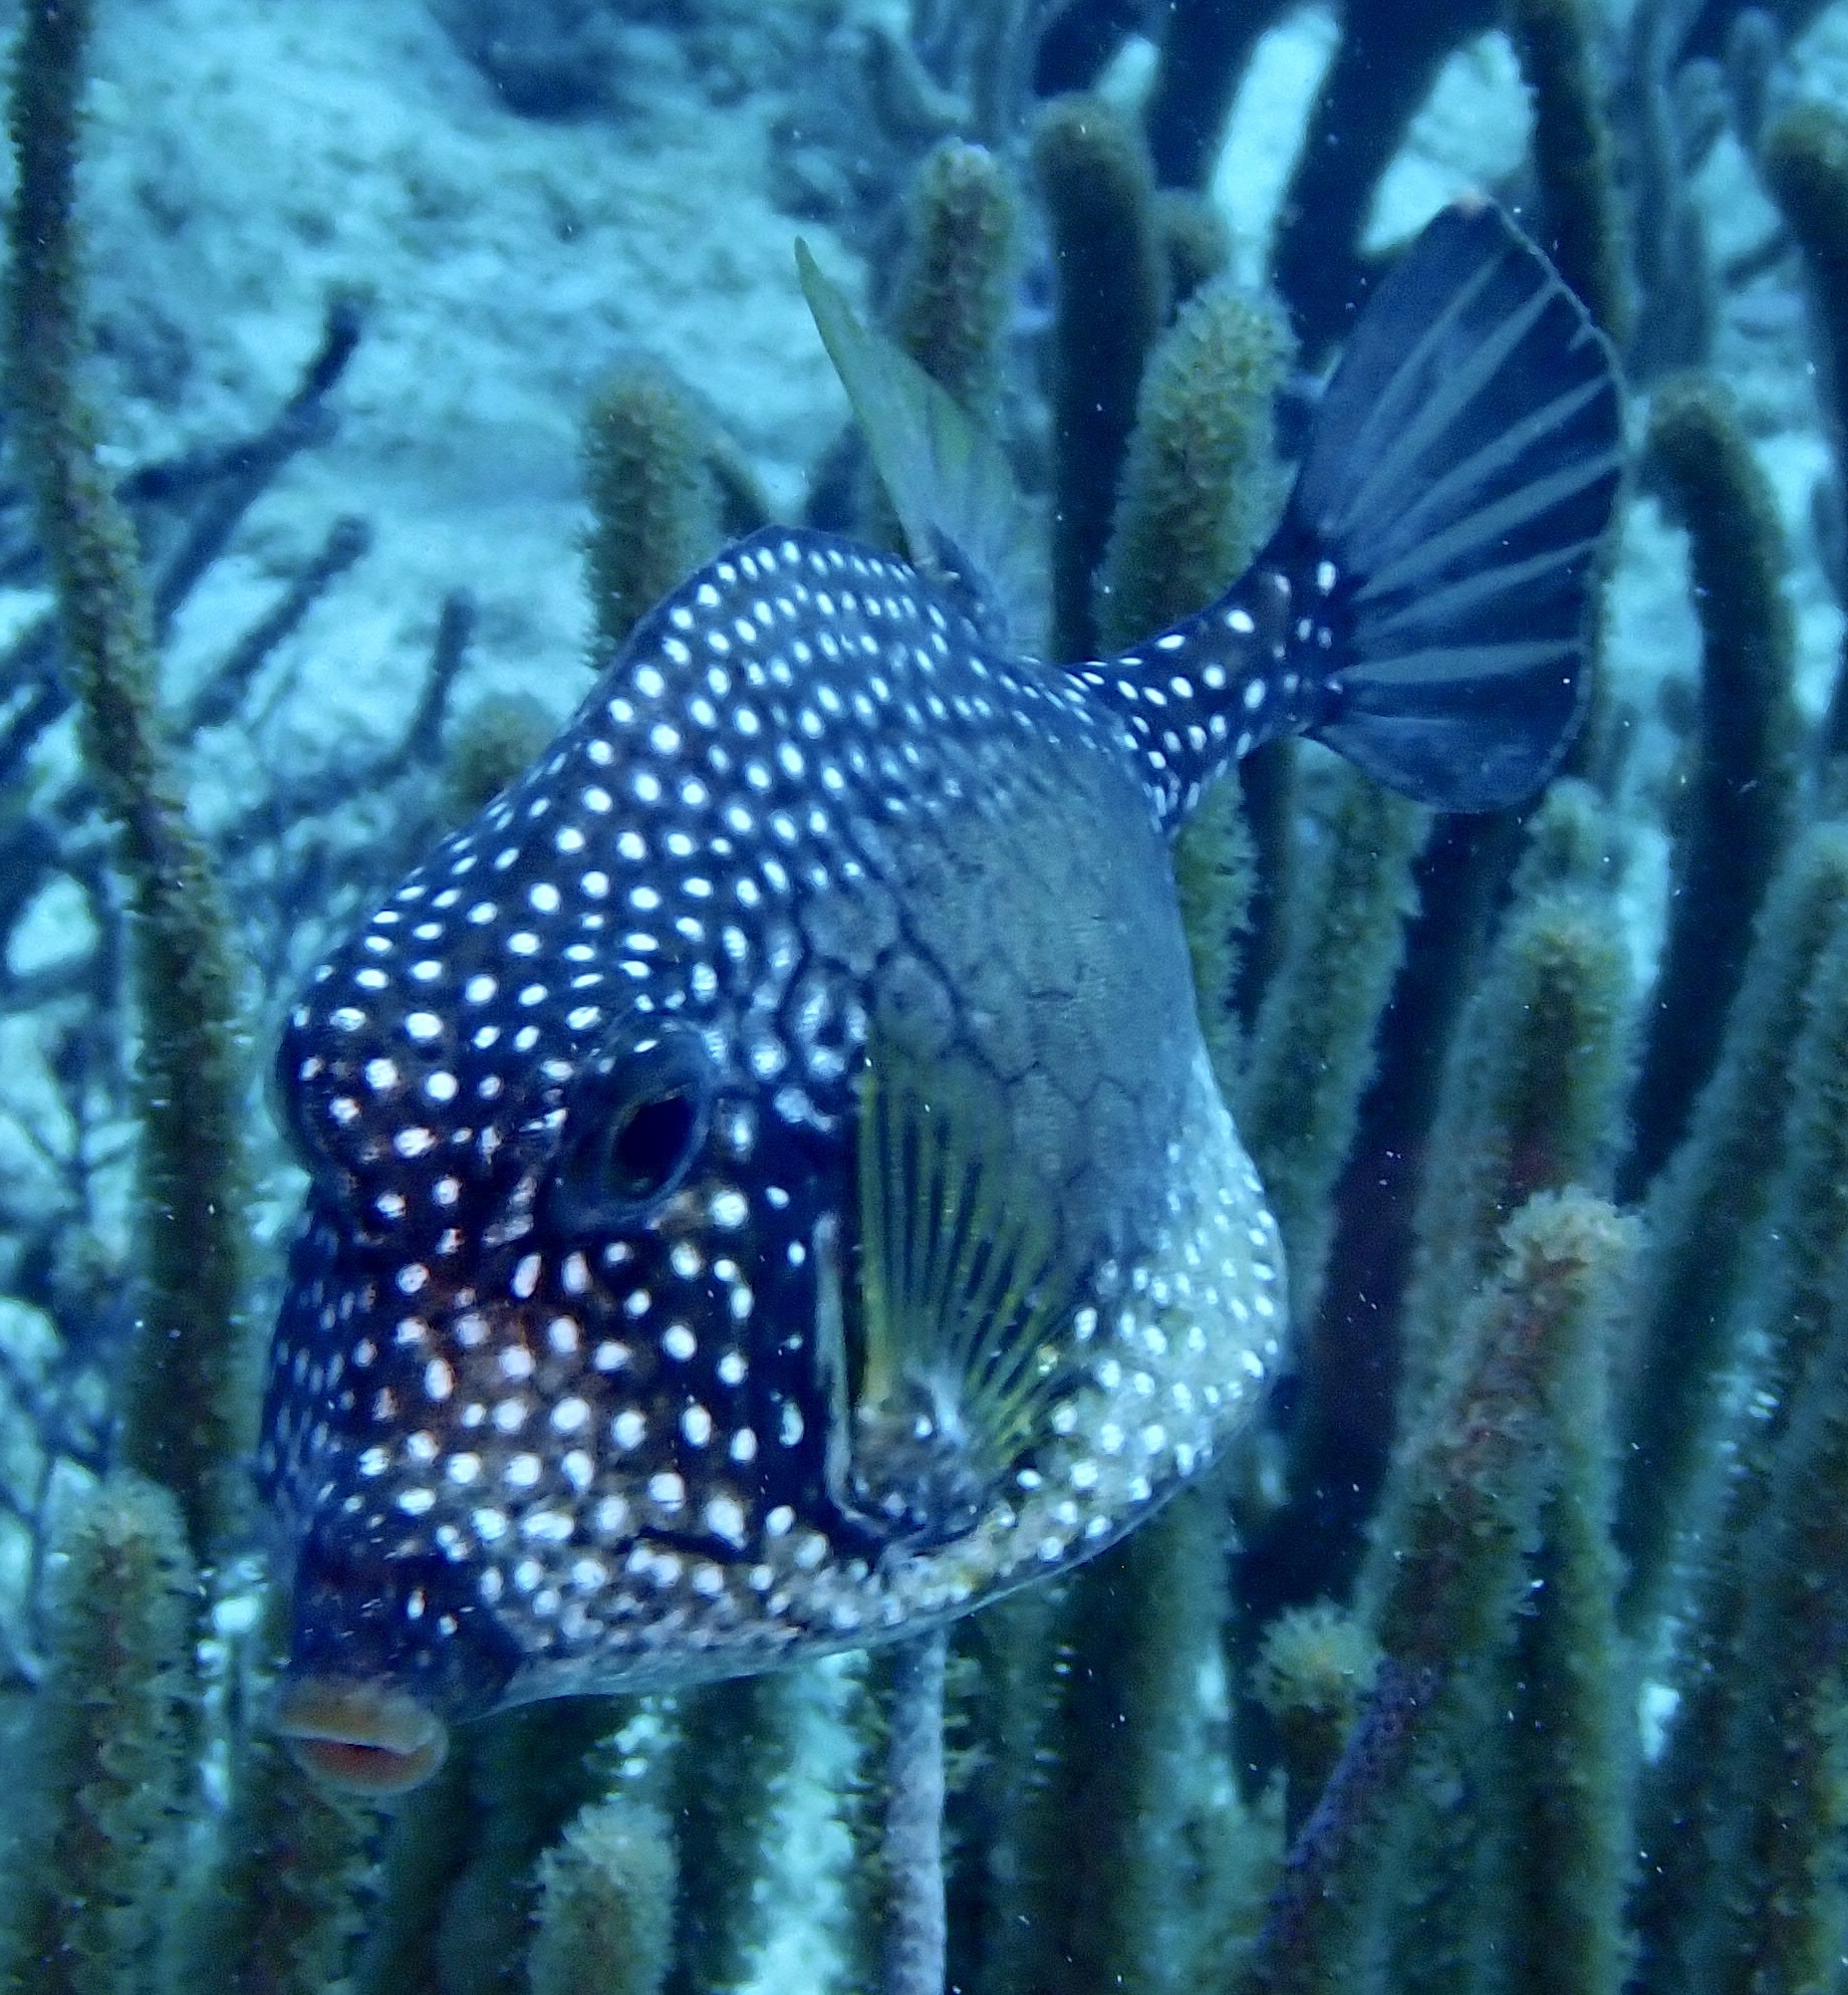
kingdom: Animalia
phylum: Chordata
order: Tetraodontiformes
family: Ostraciidae
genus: Lactophrys
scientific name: Lactophrys triqueter
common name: Smooth trunkfish
